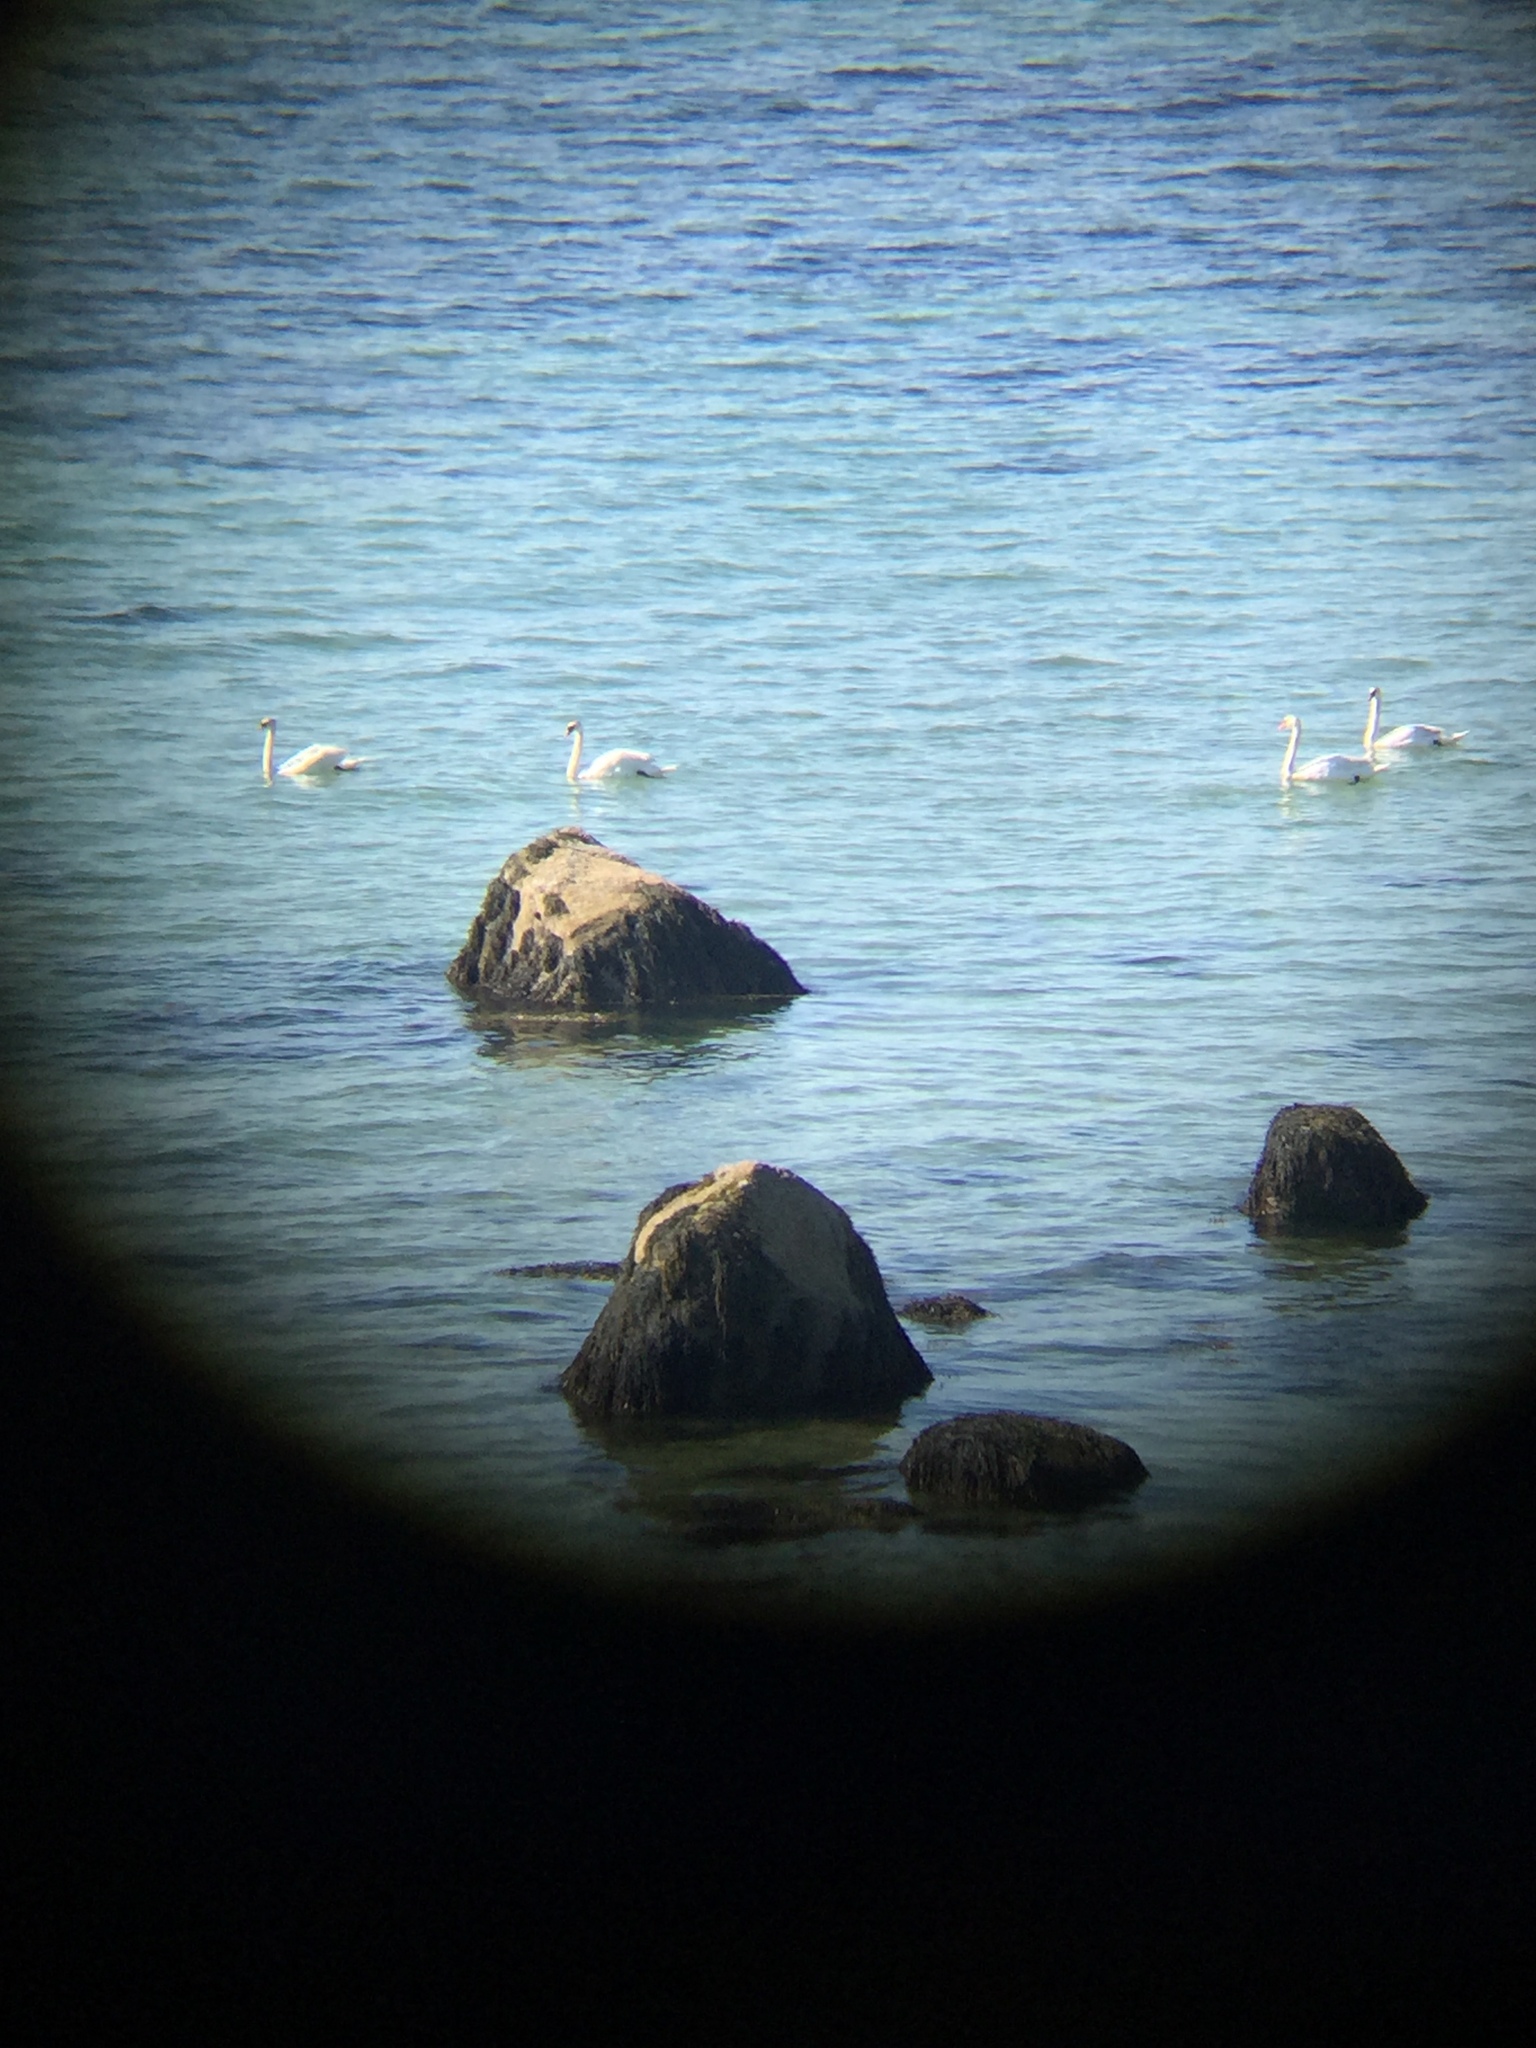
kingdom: Animalia
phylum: Chordata
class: Aves
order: Anseriformes
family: Anatidae
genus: Cygnus
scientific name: Cygnus olor
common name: Mute swan
